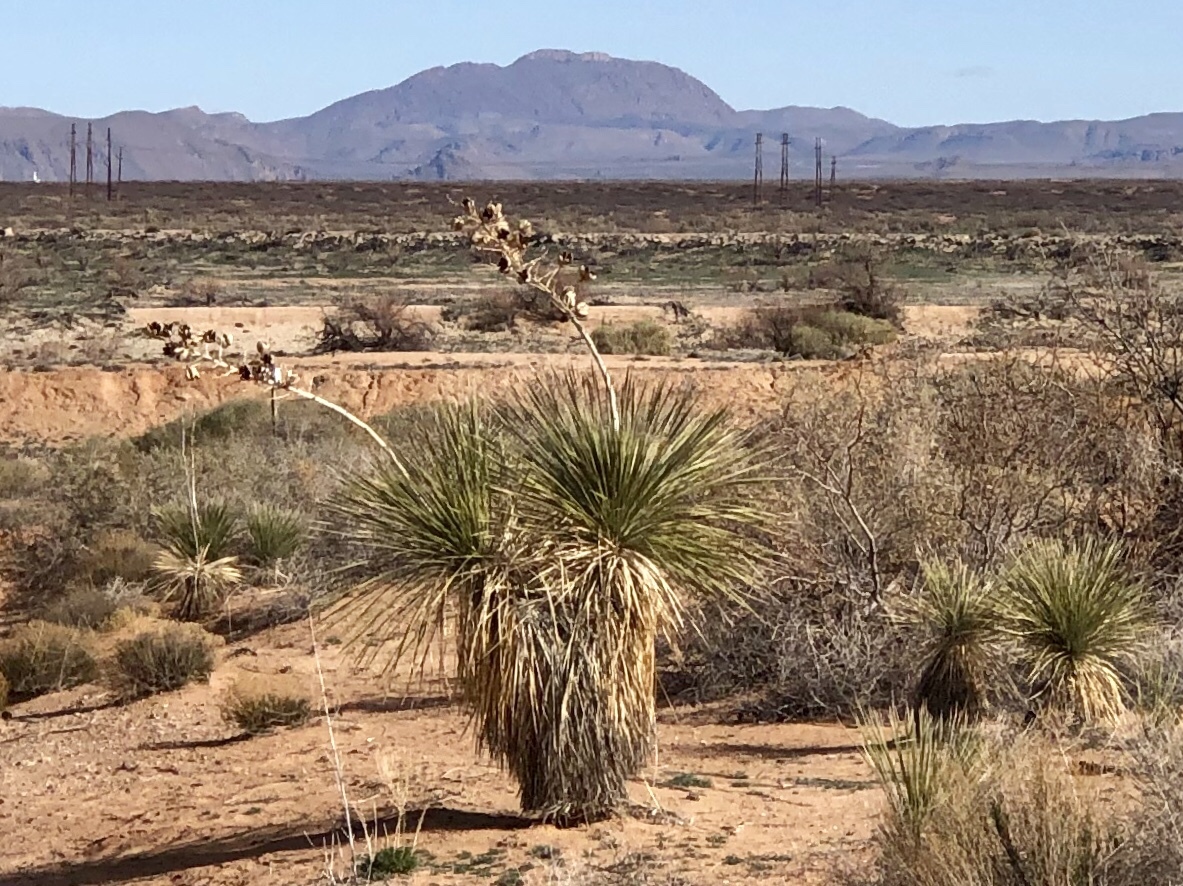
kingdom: Plantae
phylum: Tracheophyta
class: Liliopsida
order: Asparagales
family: Asparagaceae
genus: Yucca
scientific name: Yucca elata
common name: Palmella
